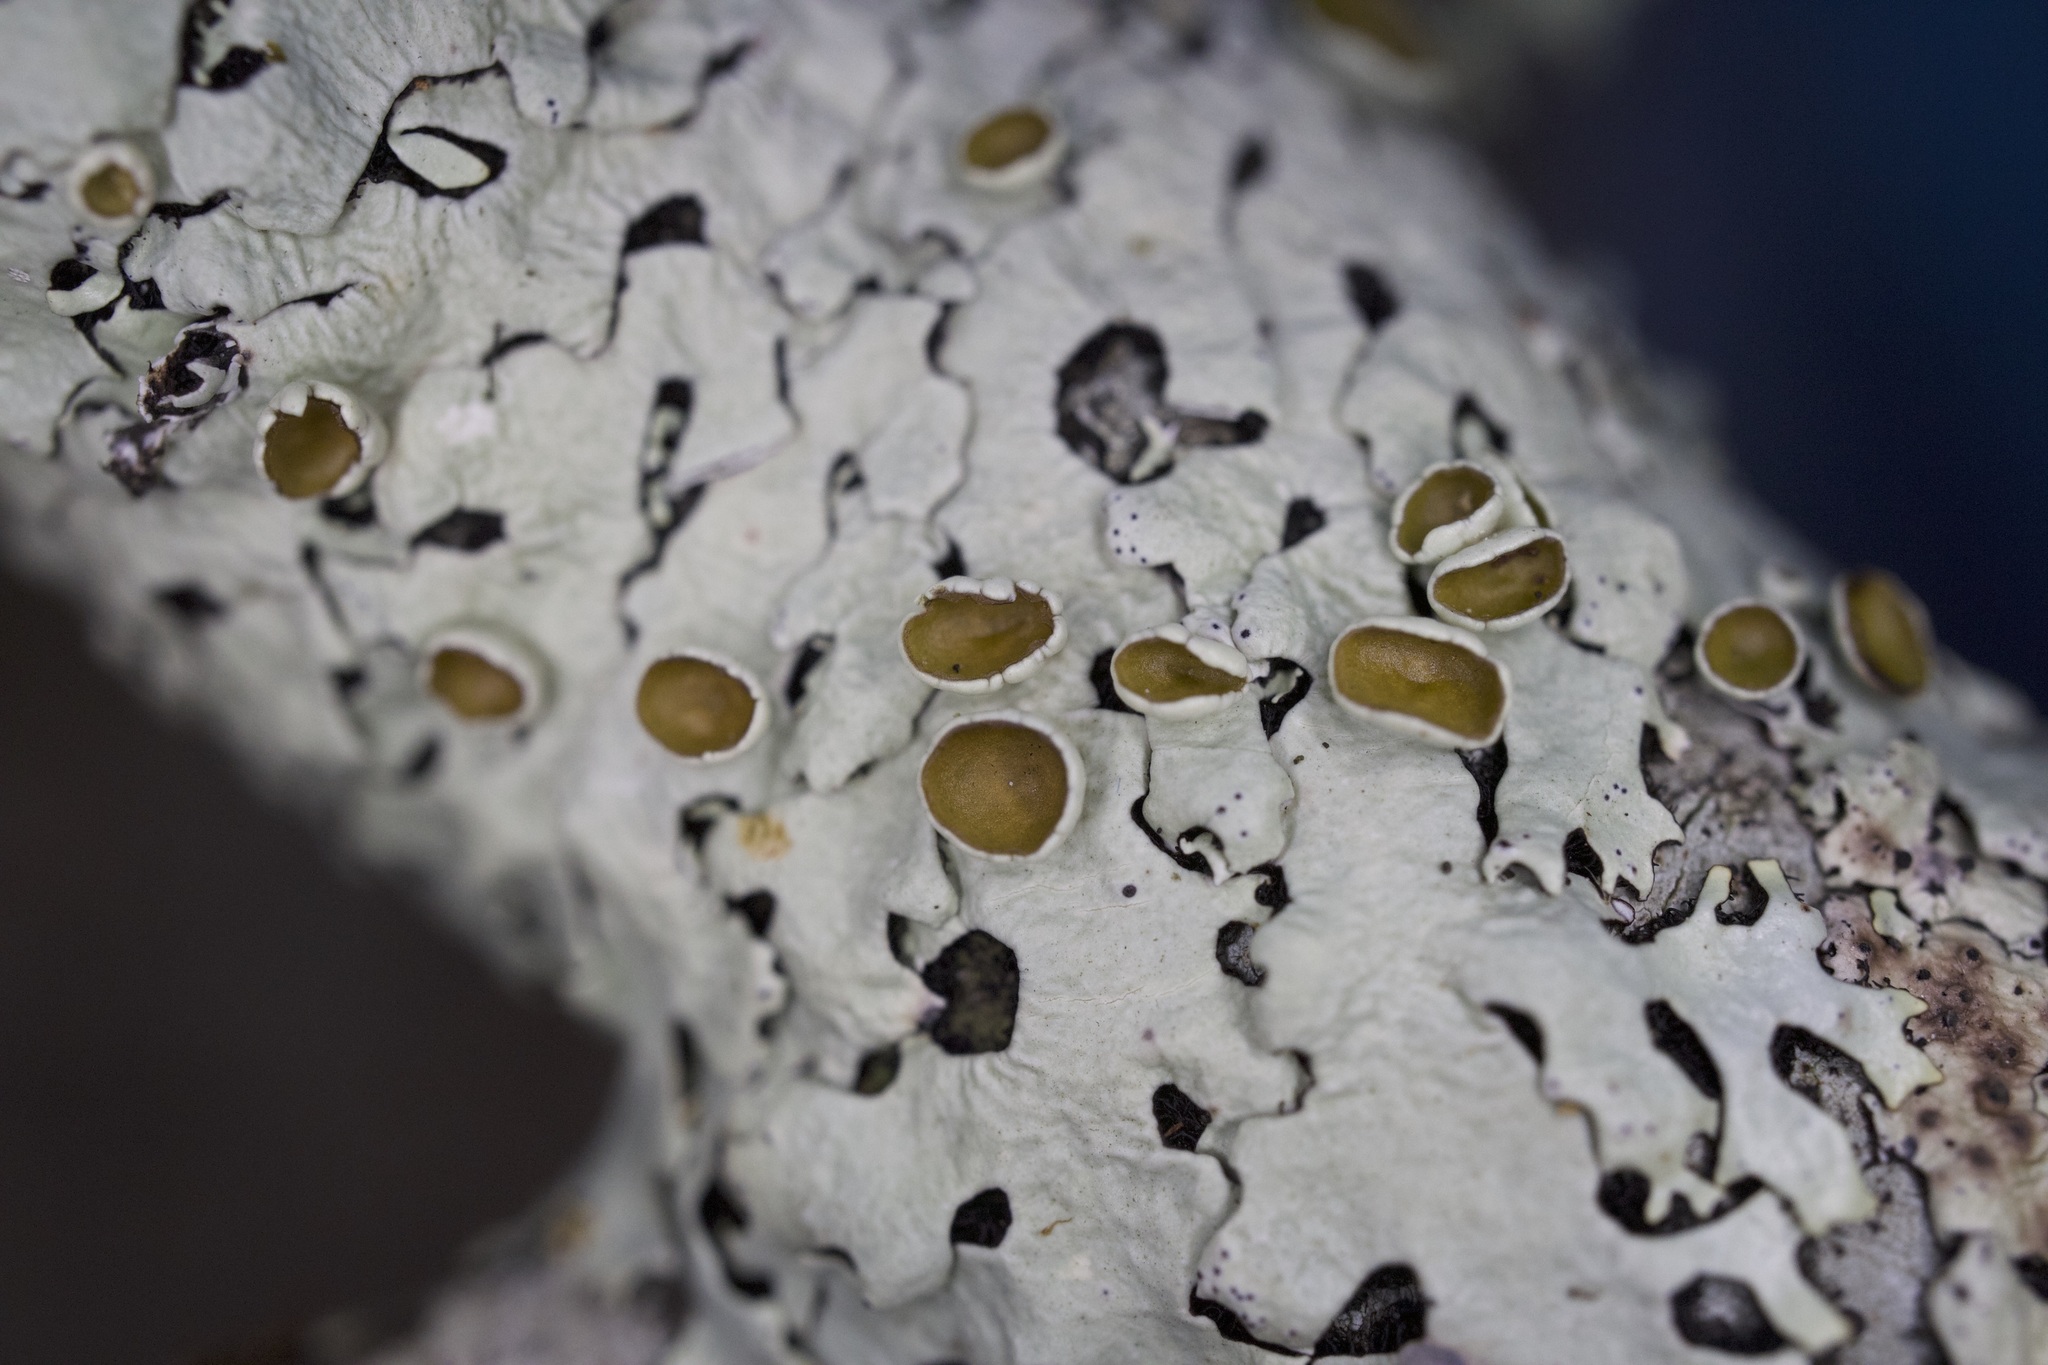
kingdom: Fungi
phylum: Ascomycota
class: Lecanoromycetes
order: Lecanorales
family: Parmeliaceae
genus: Hypotrachyna
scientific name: Hypotrachyna livida
